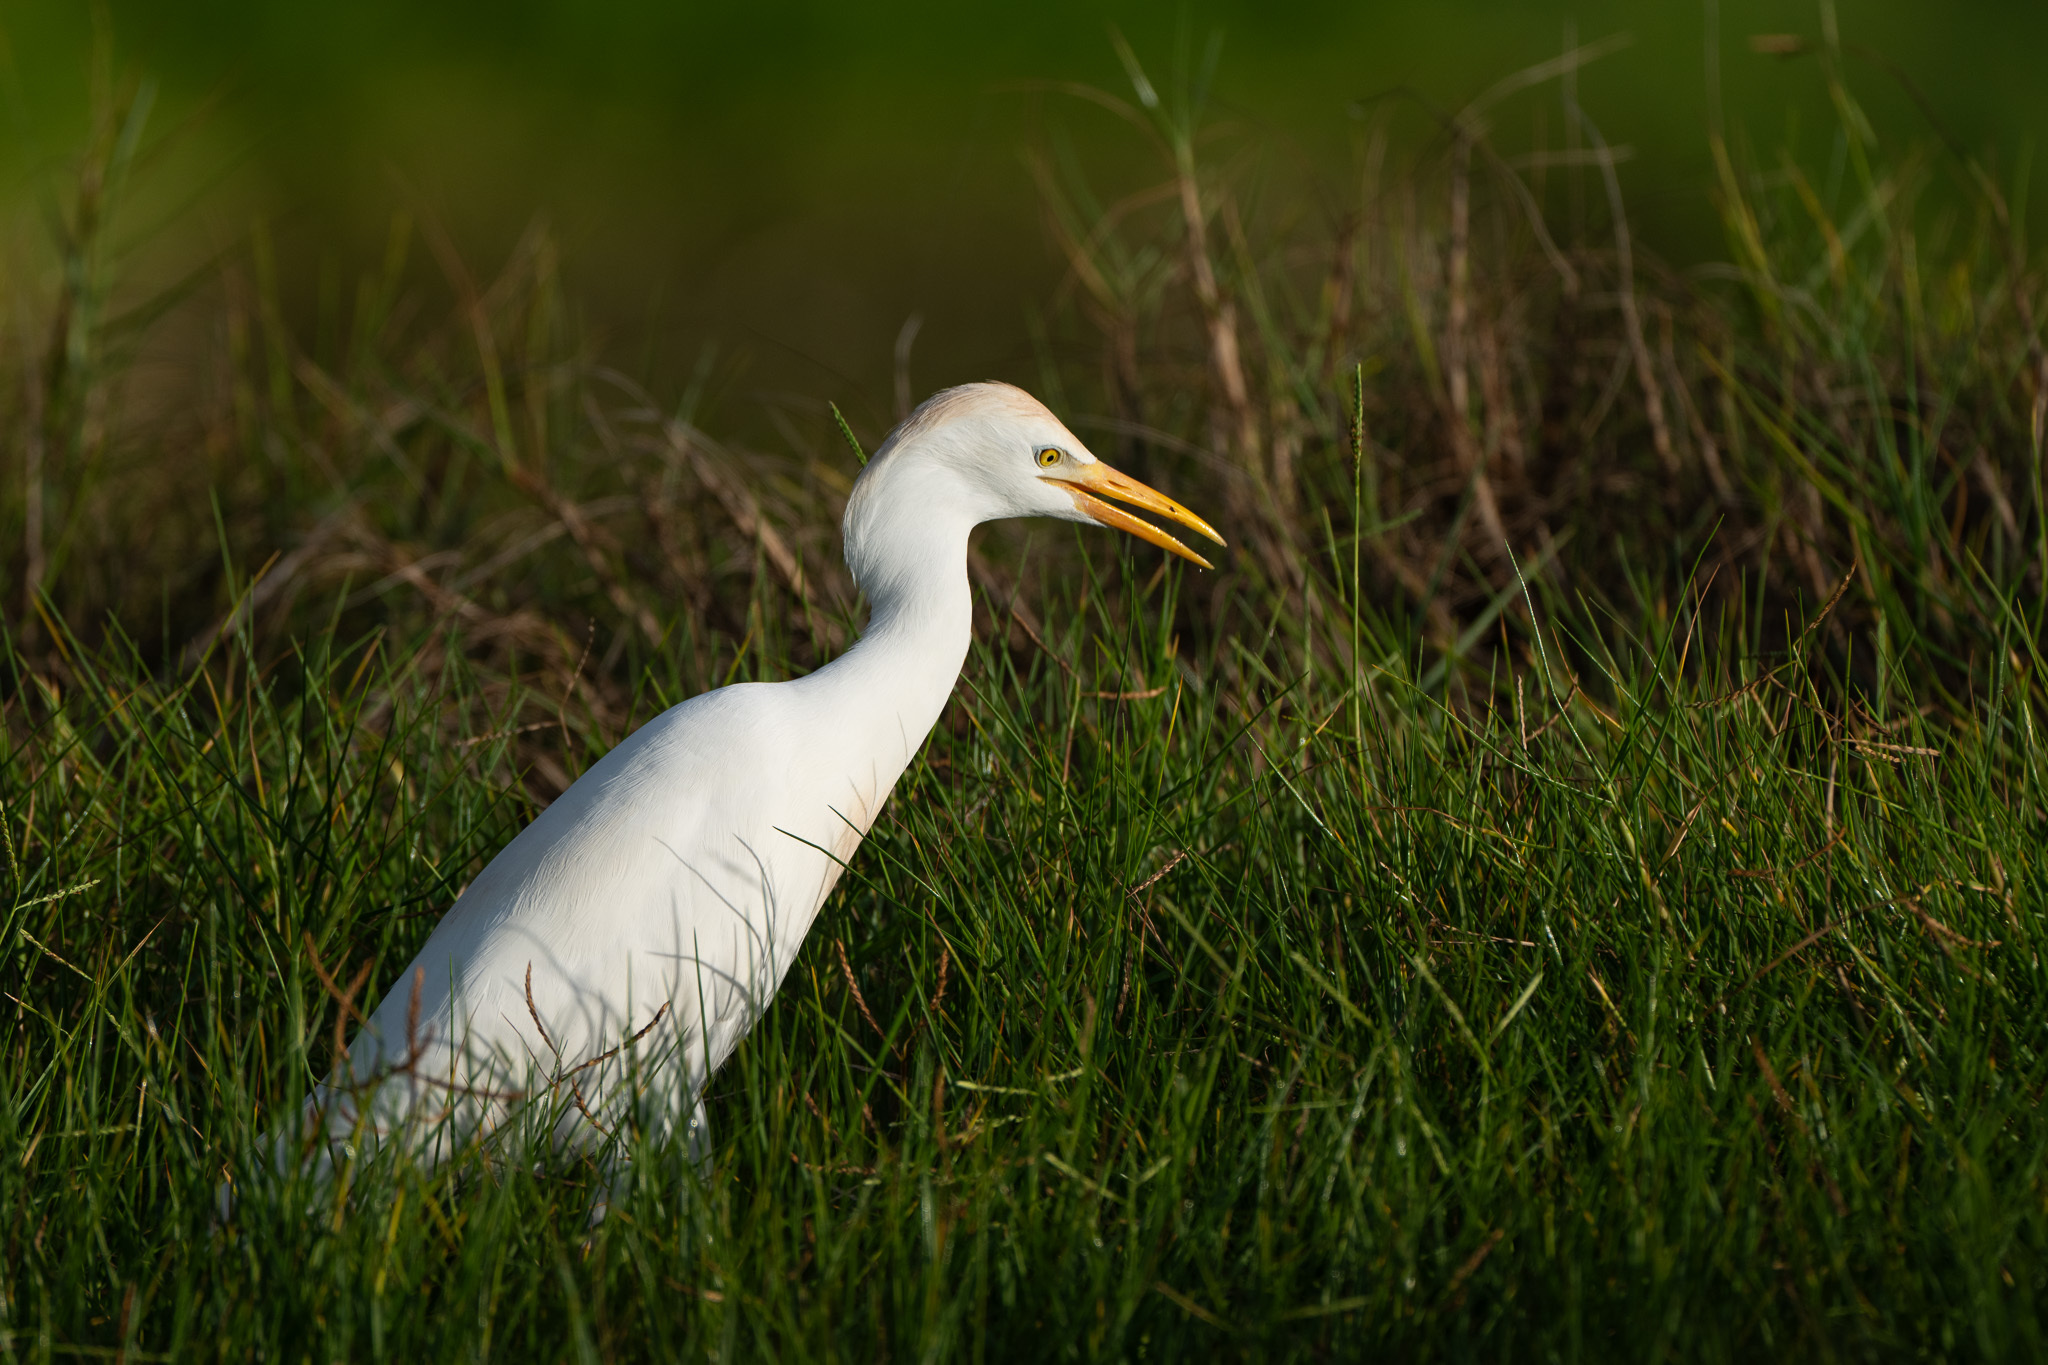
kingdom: Animalia
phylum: Chordata
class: Aves
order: Pelecaniformes
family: Ardeidae
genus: Bubulcus
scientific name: Bubulcus ibis
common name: Cattle egret
